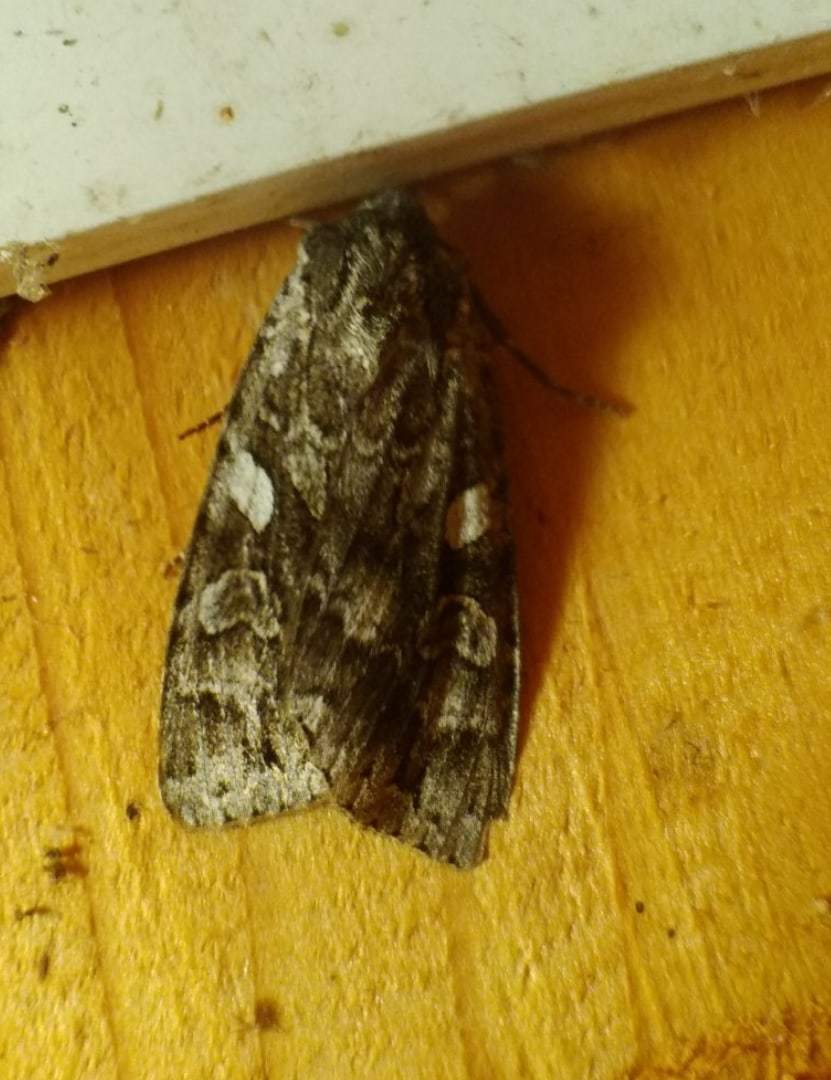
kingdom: Animalia
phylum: Arthropoda
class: Insecta
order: Lepidoptera
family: Noctuidae
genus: Eurois
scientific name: Eurois occulta
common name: Great brocade
